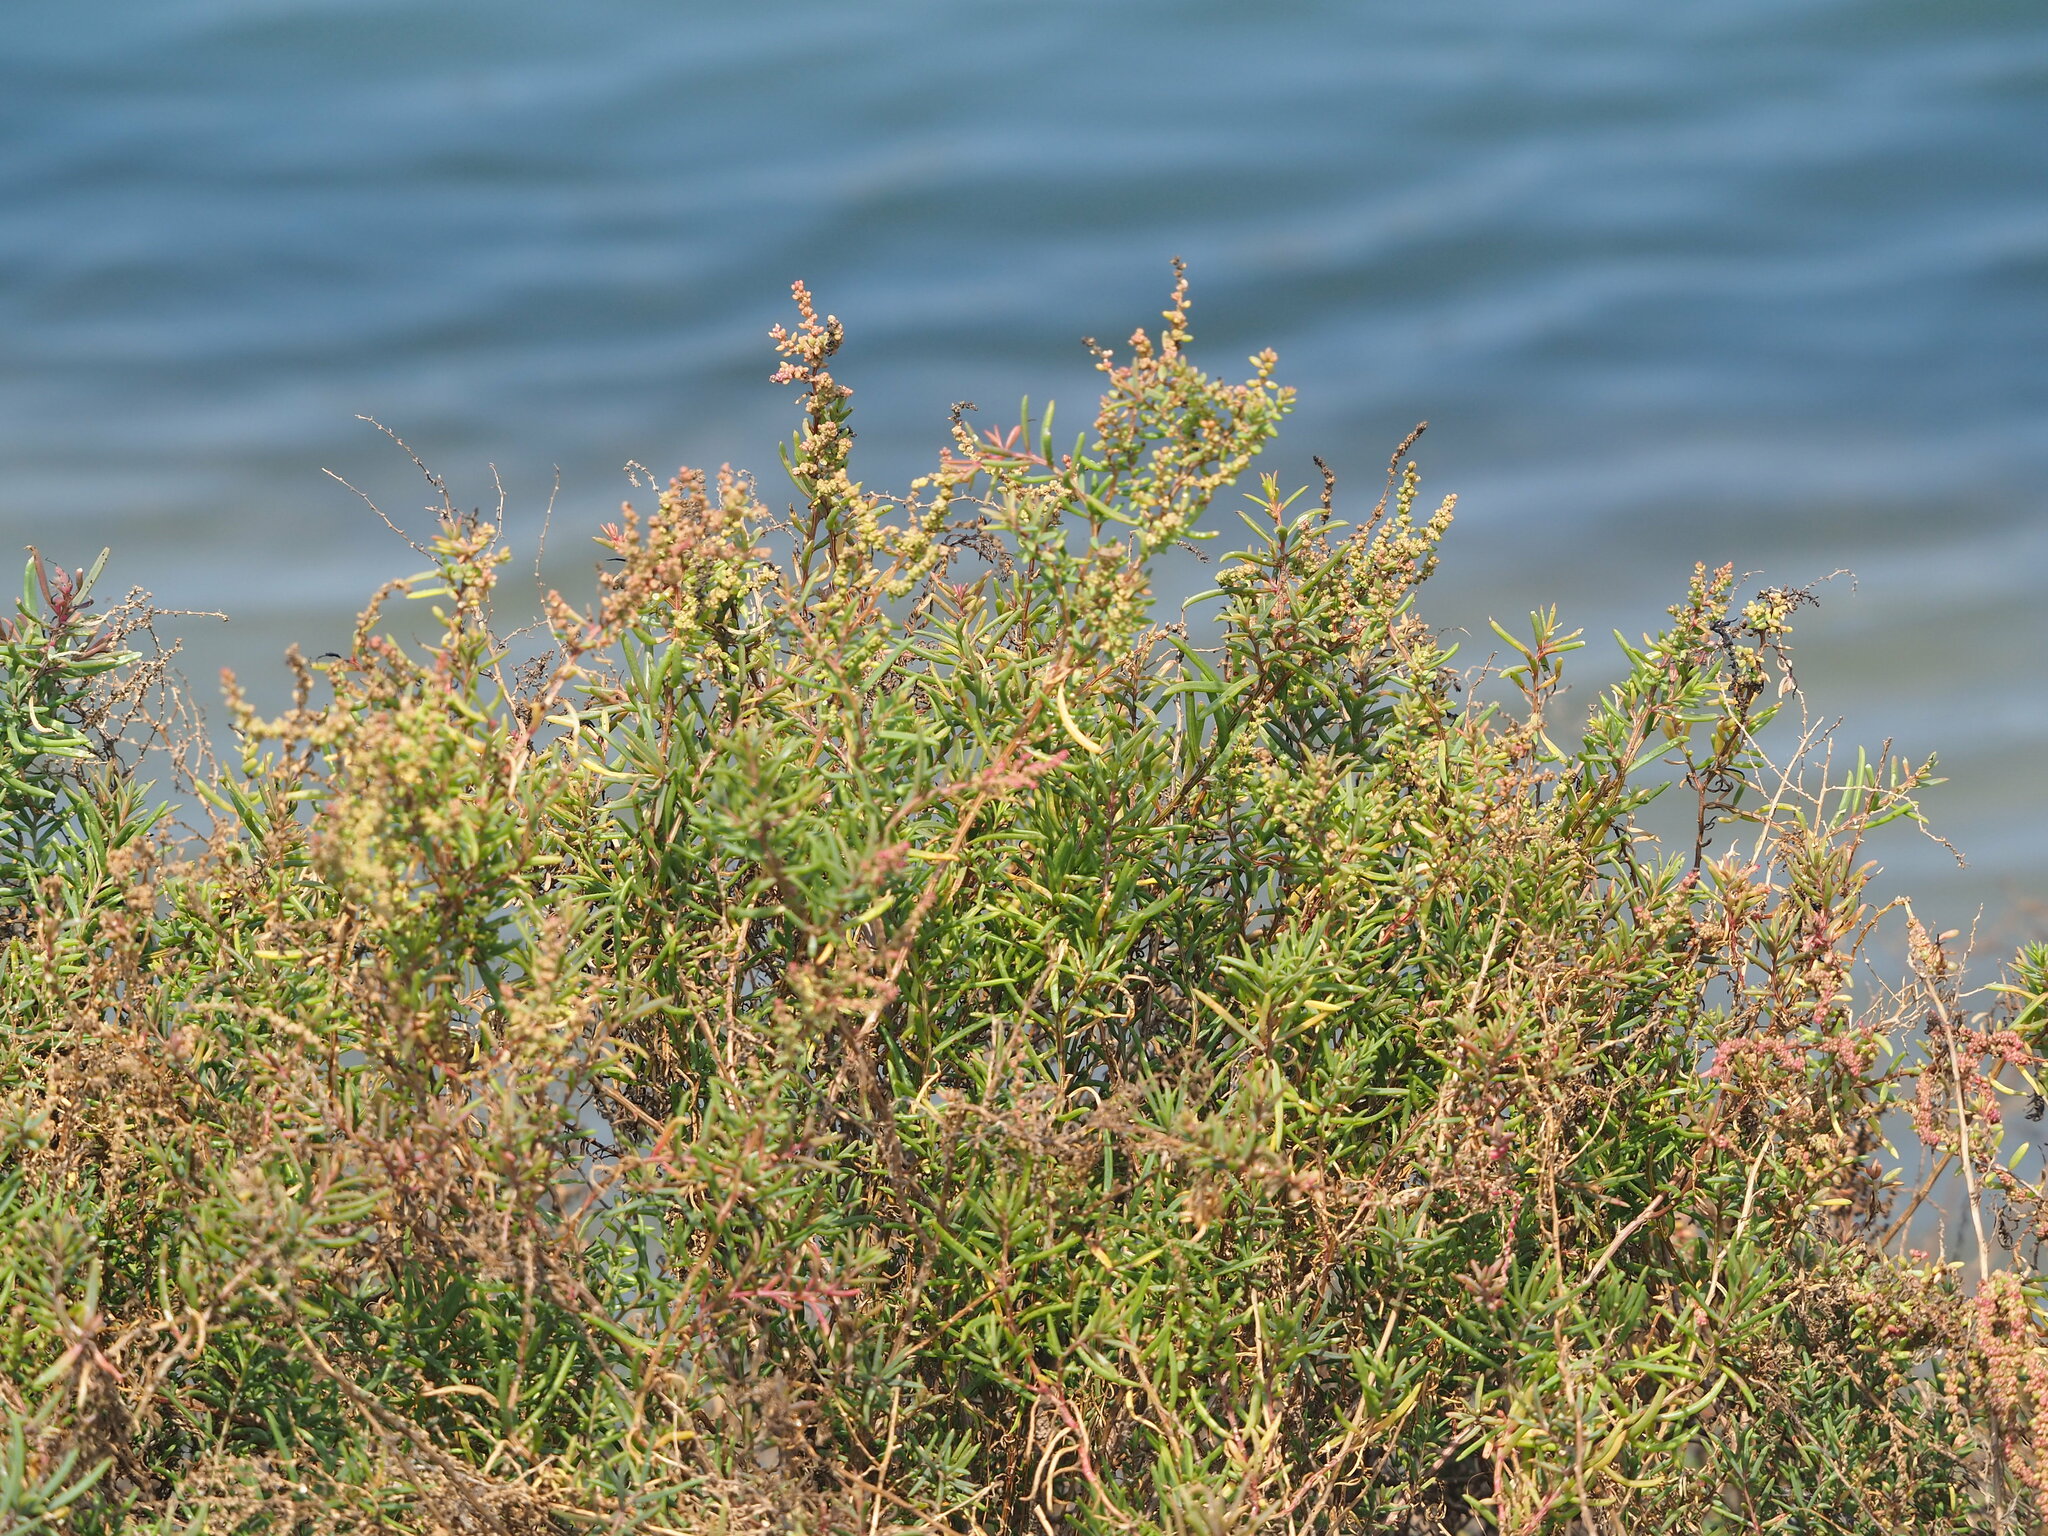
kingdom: Plantae
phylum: Tracheophyta
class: Magnoliopsida
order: Caryophyllales
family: Amaranthaceae
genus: Suaeda
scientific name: Suaeda maritima
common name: Annual sea-blite
